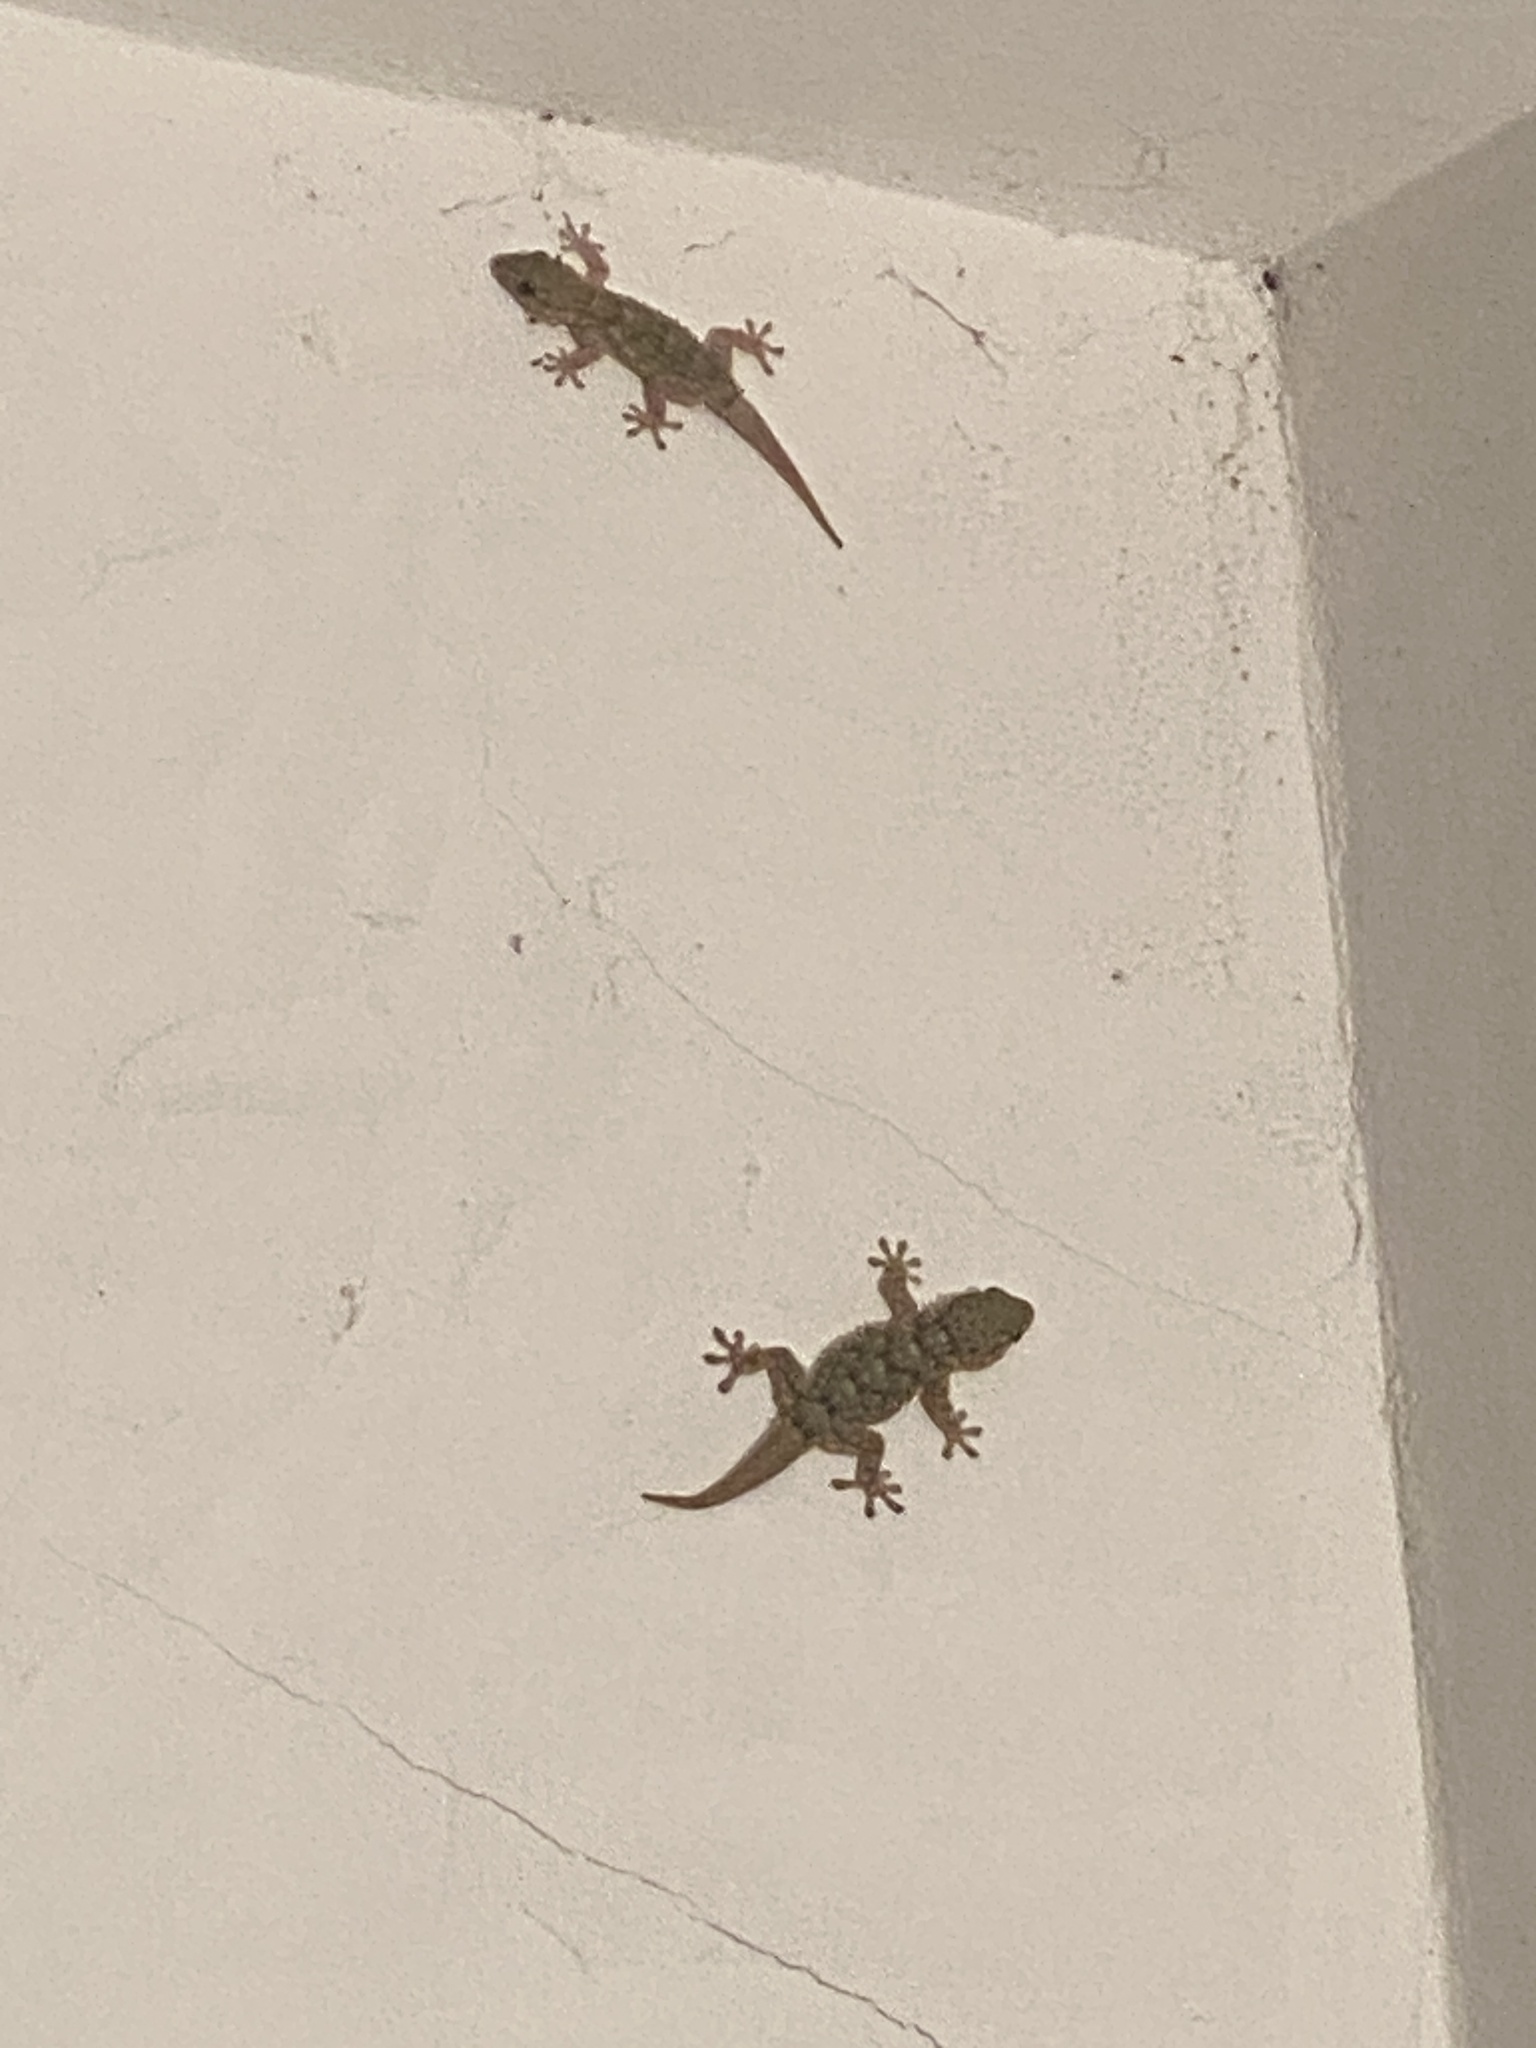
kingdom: Animalia
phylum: Chordata
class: Squamata
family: Phyllodactylidae
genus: Tarentola
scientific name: Tarentola mauritanica
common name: Moorish gecko
